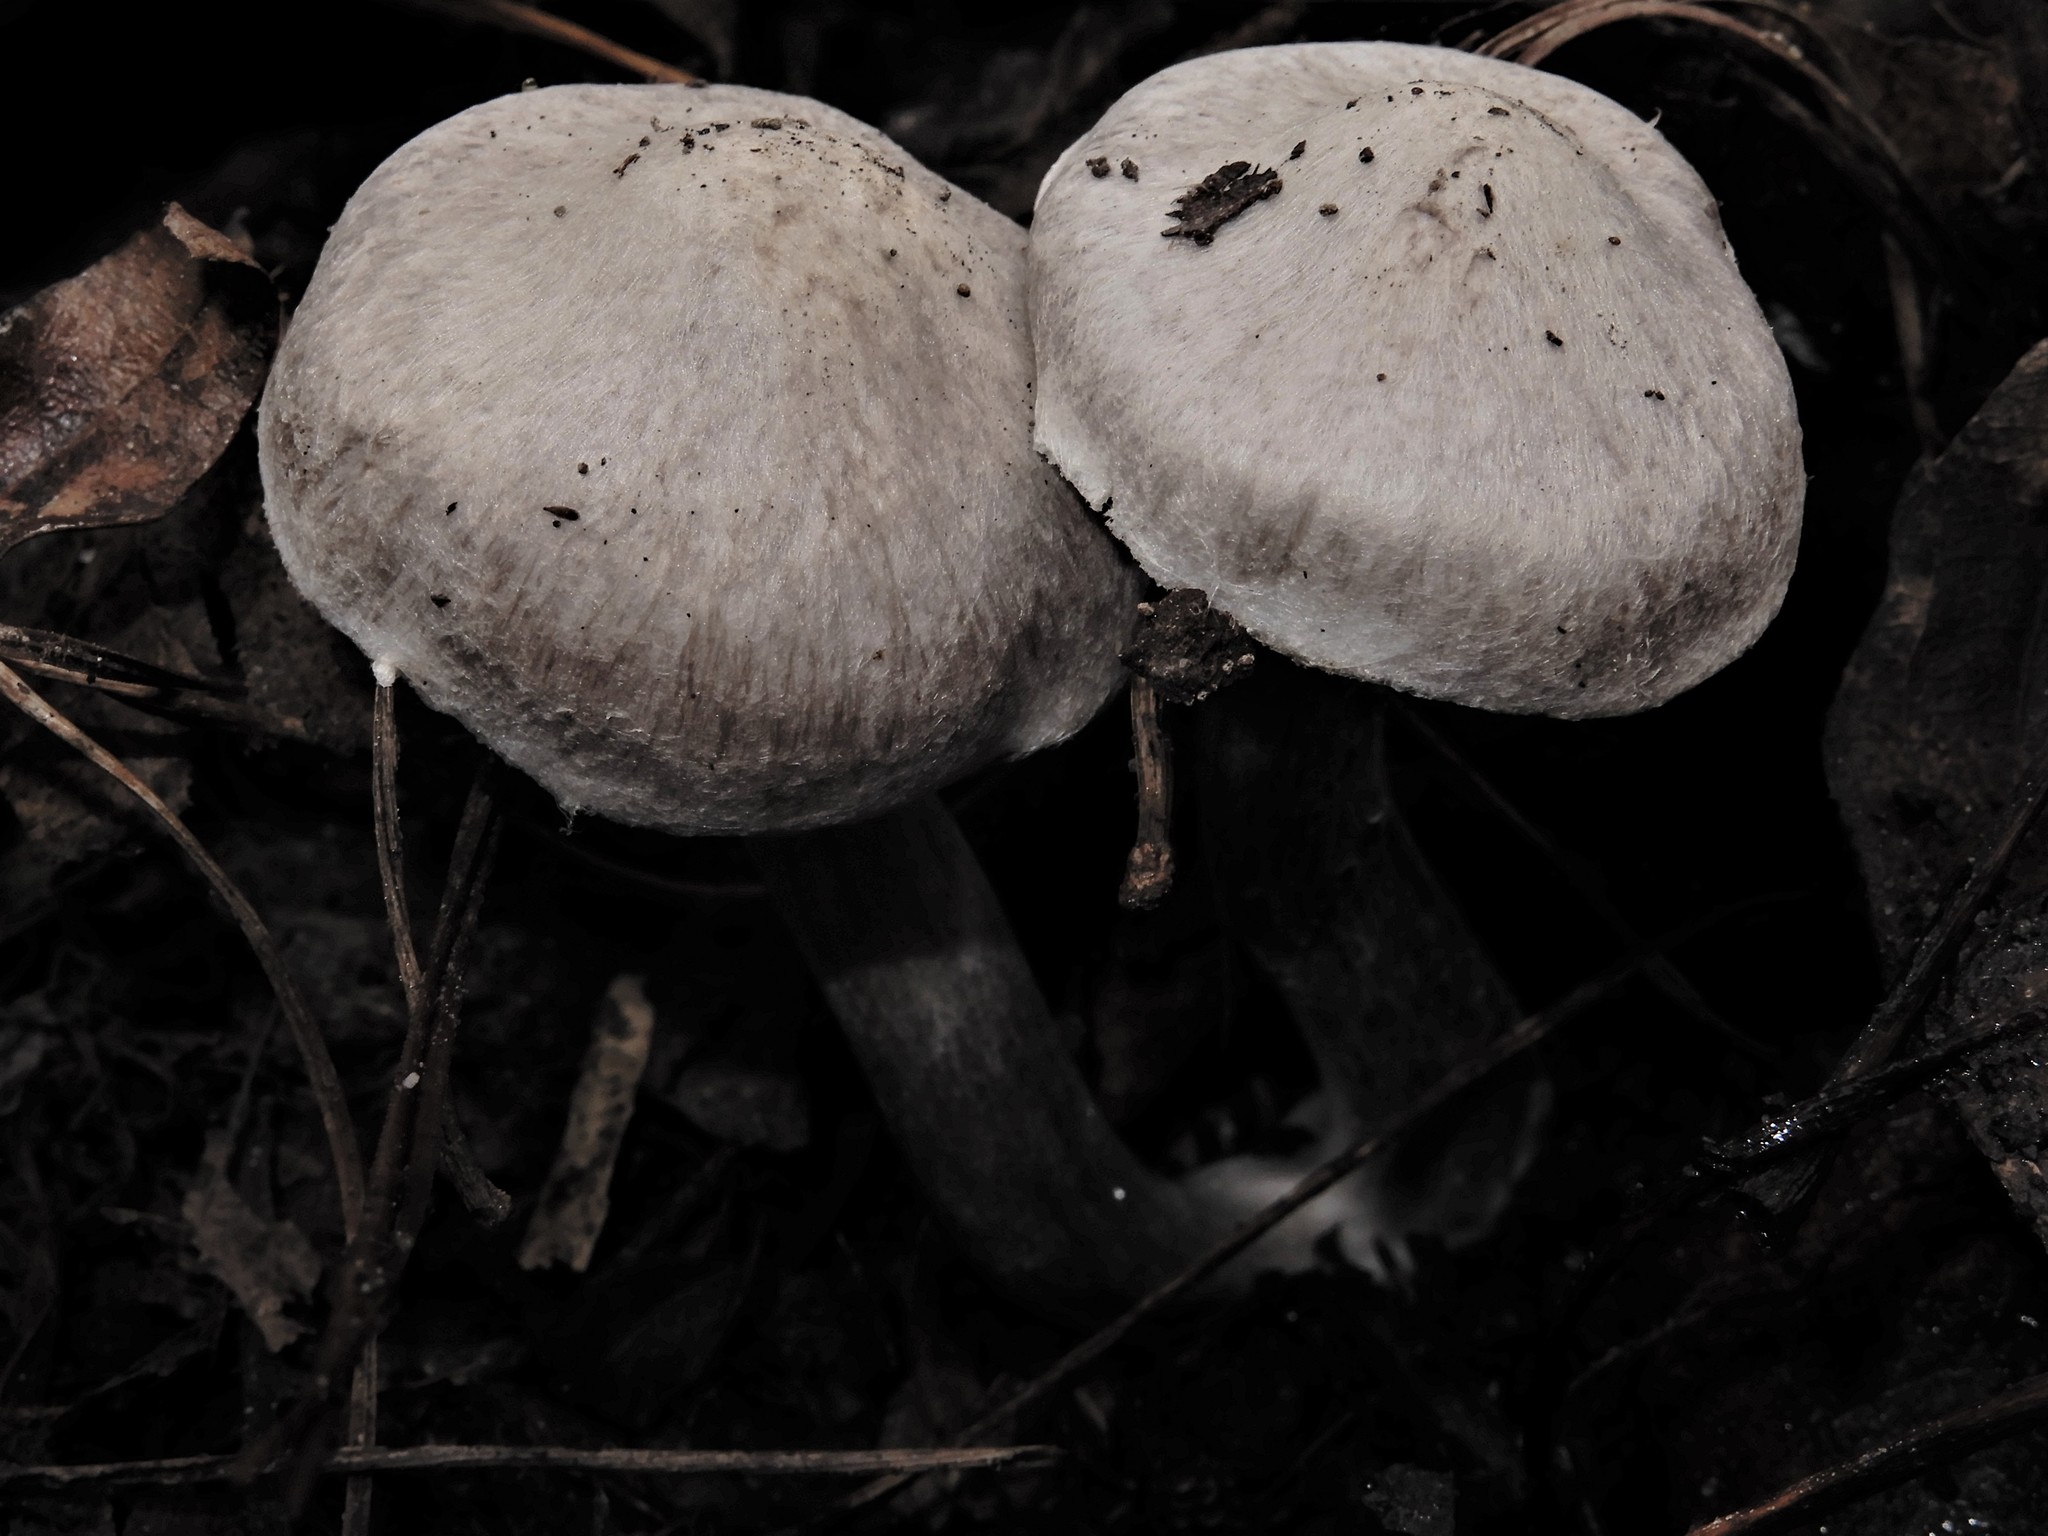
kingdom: Fungi
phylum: Basidiomycota
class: Agaricomycetes
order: Agaricales
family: Tricholomataceae
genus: Tricholoma
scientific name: Tricholoma scalpturatum
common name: Yellowing knight
